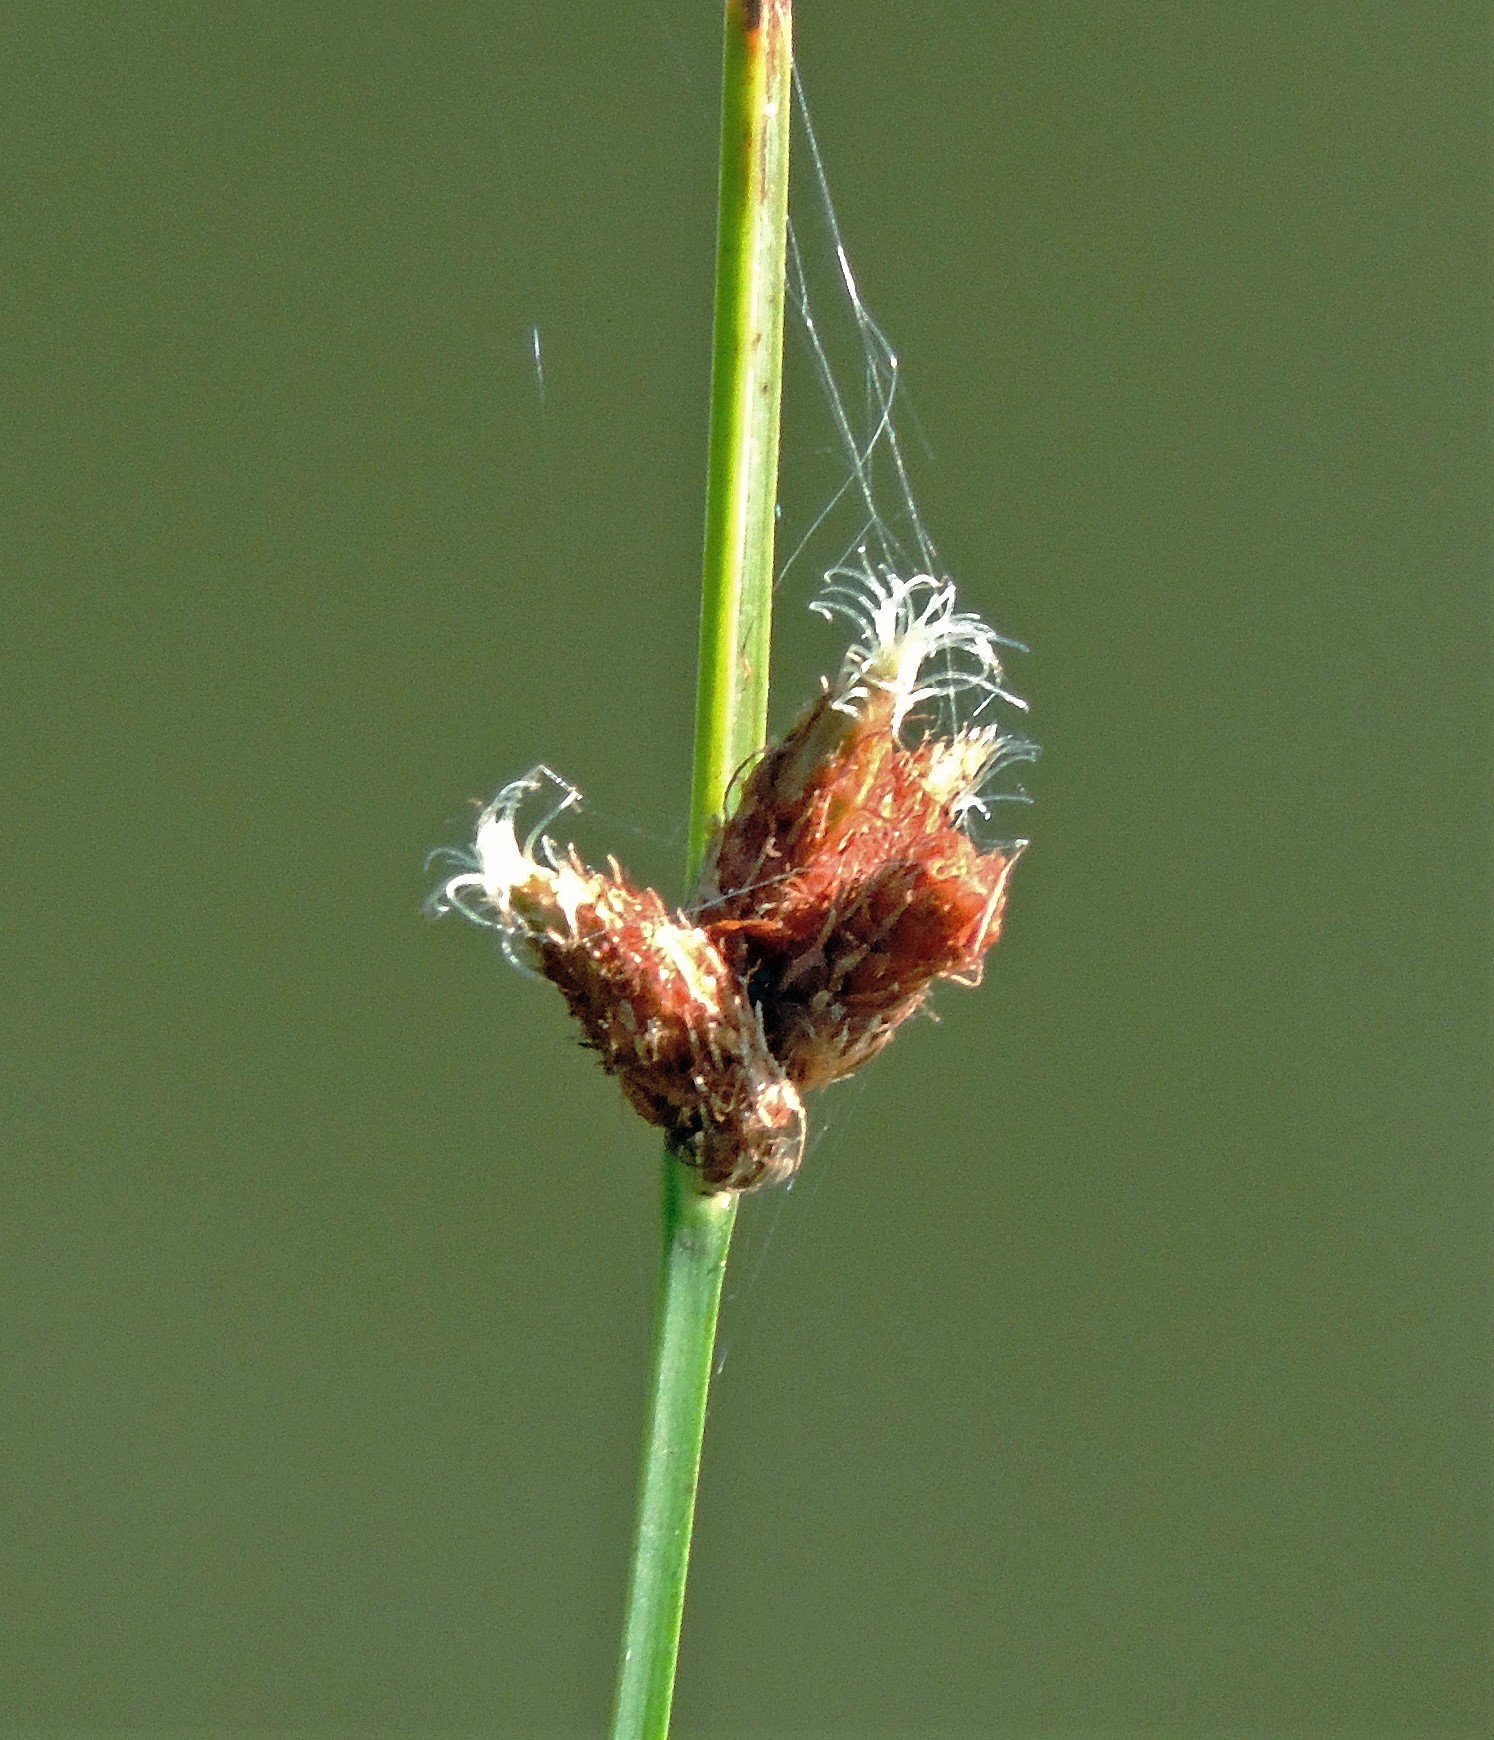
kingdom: Plantae
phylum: Tracheophyta
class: Liliopsida
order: Poales
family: Cyperaceae
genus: Schoenoplectus
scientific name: Schoenoplectus americanus
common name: American three-square bulrush
